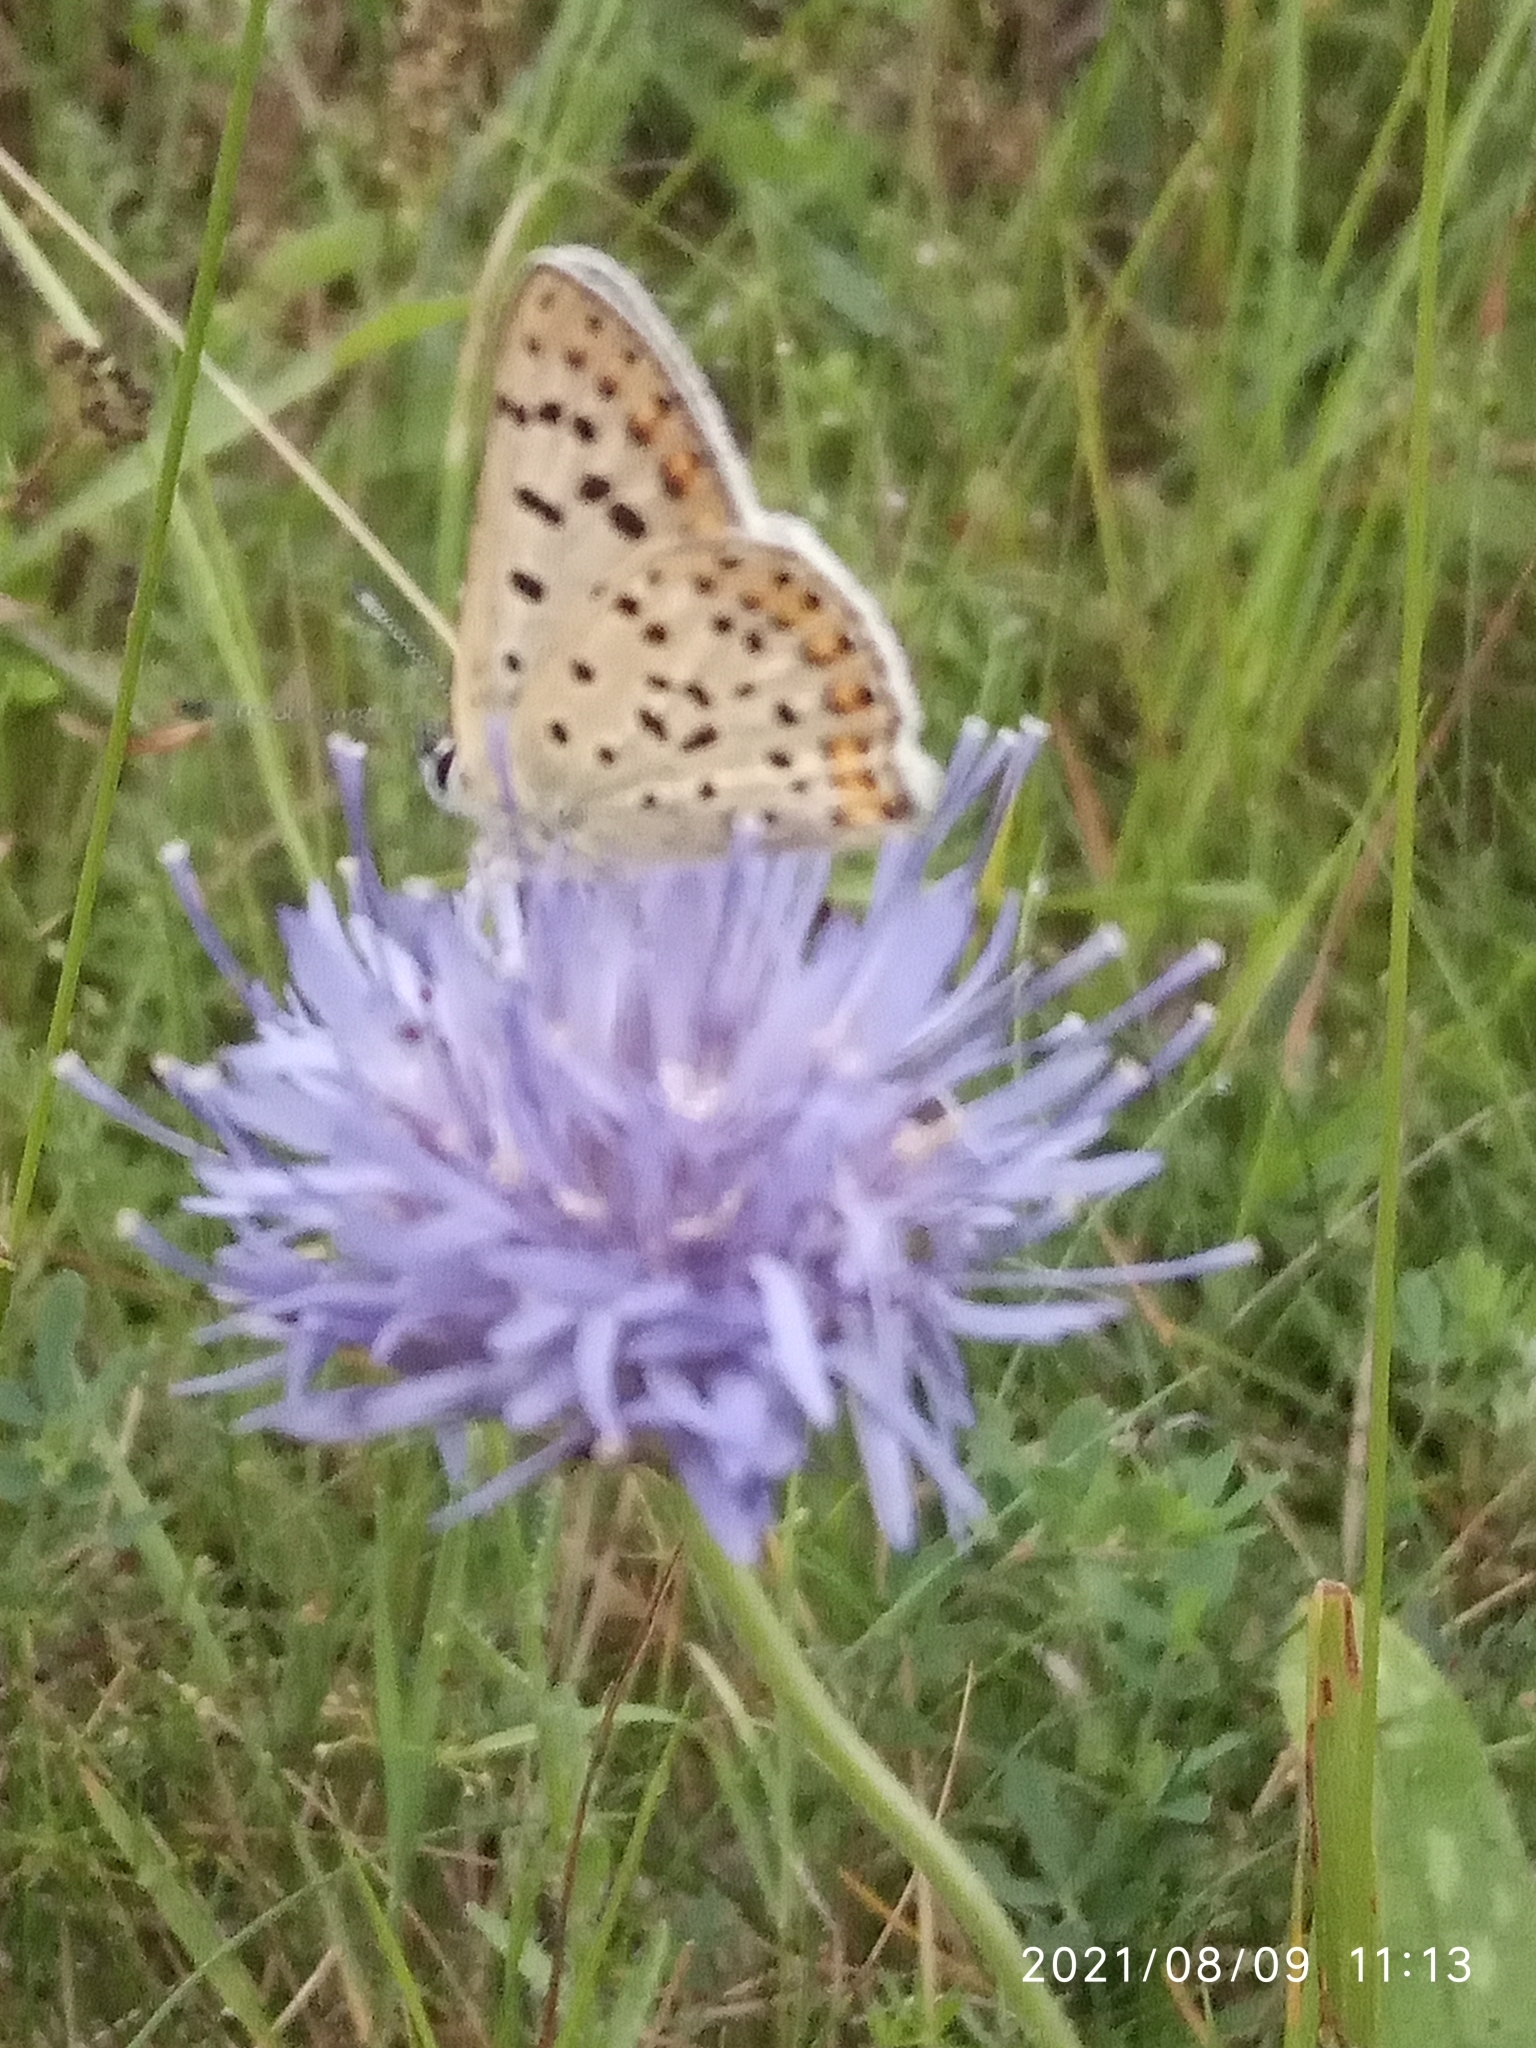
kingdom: Animalia
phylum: Arthropoda
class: Insecta
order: Lepidoptera
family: Lycaenidae
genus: Loweia
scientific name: Loweia tityrus
